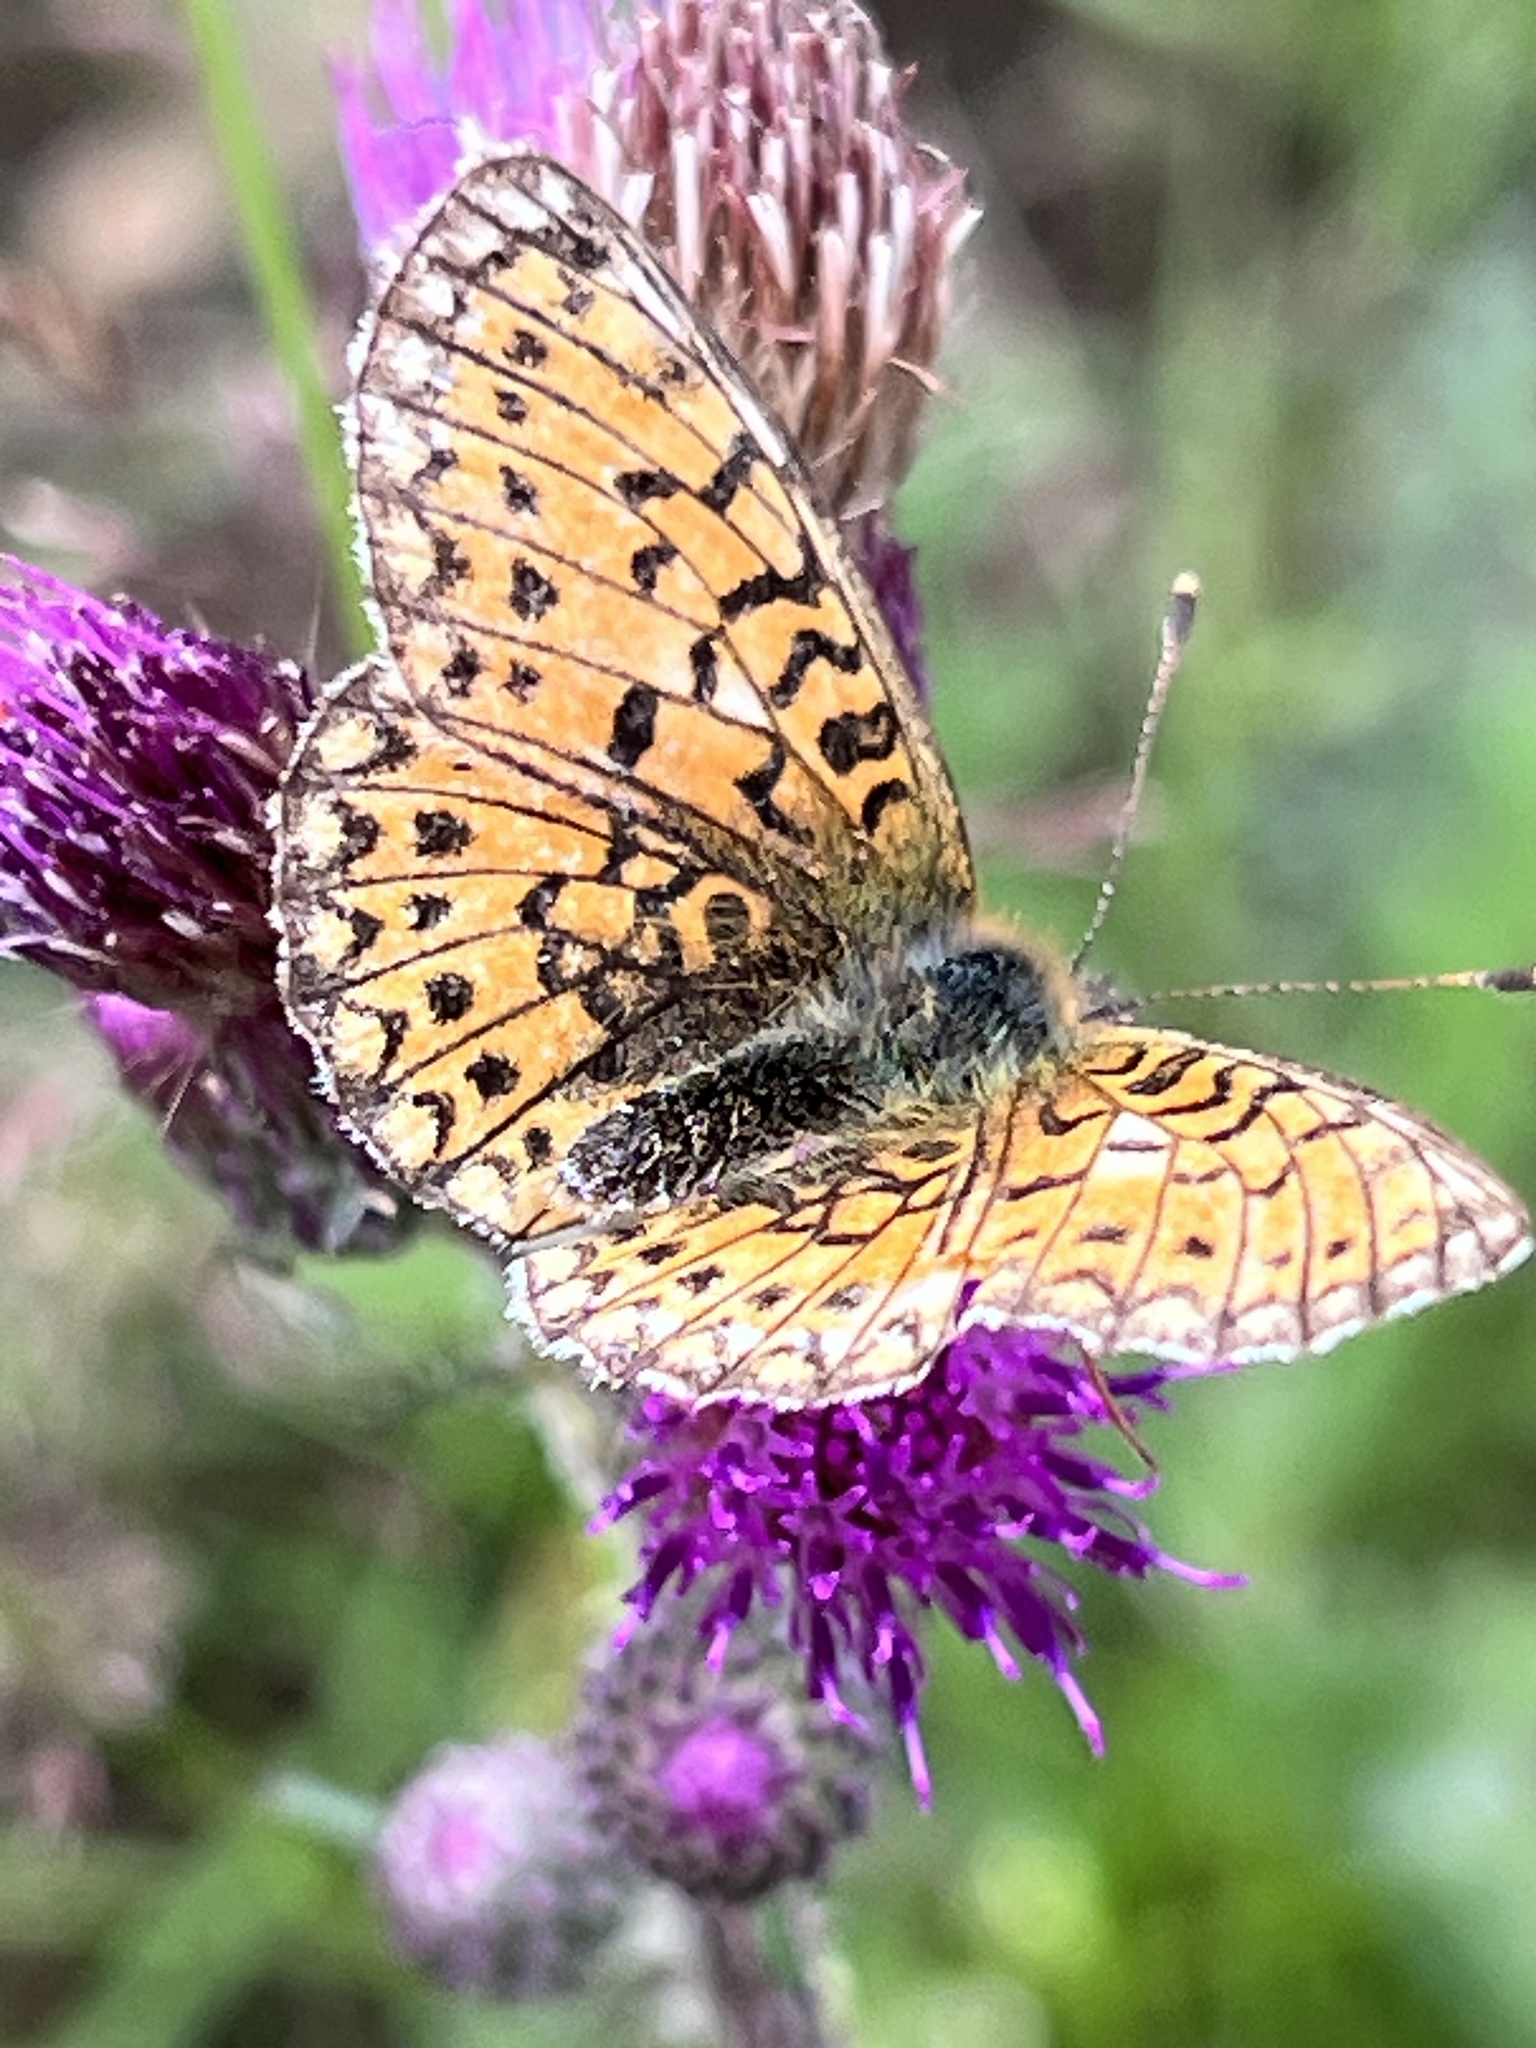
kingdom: Animalia
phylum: Arthropoda
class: Insecta
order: Lepidoptera
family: Nymphalidae
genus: Boloria
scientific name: Boloria selene
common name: Small pearl-bordered fritillary
